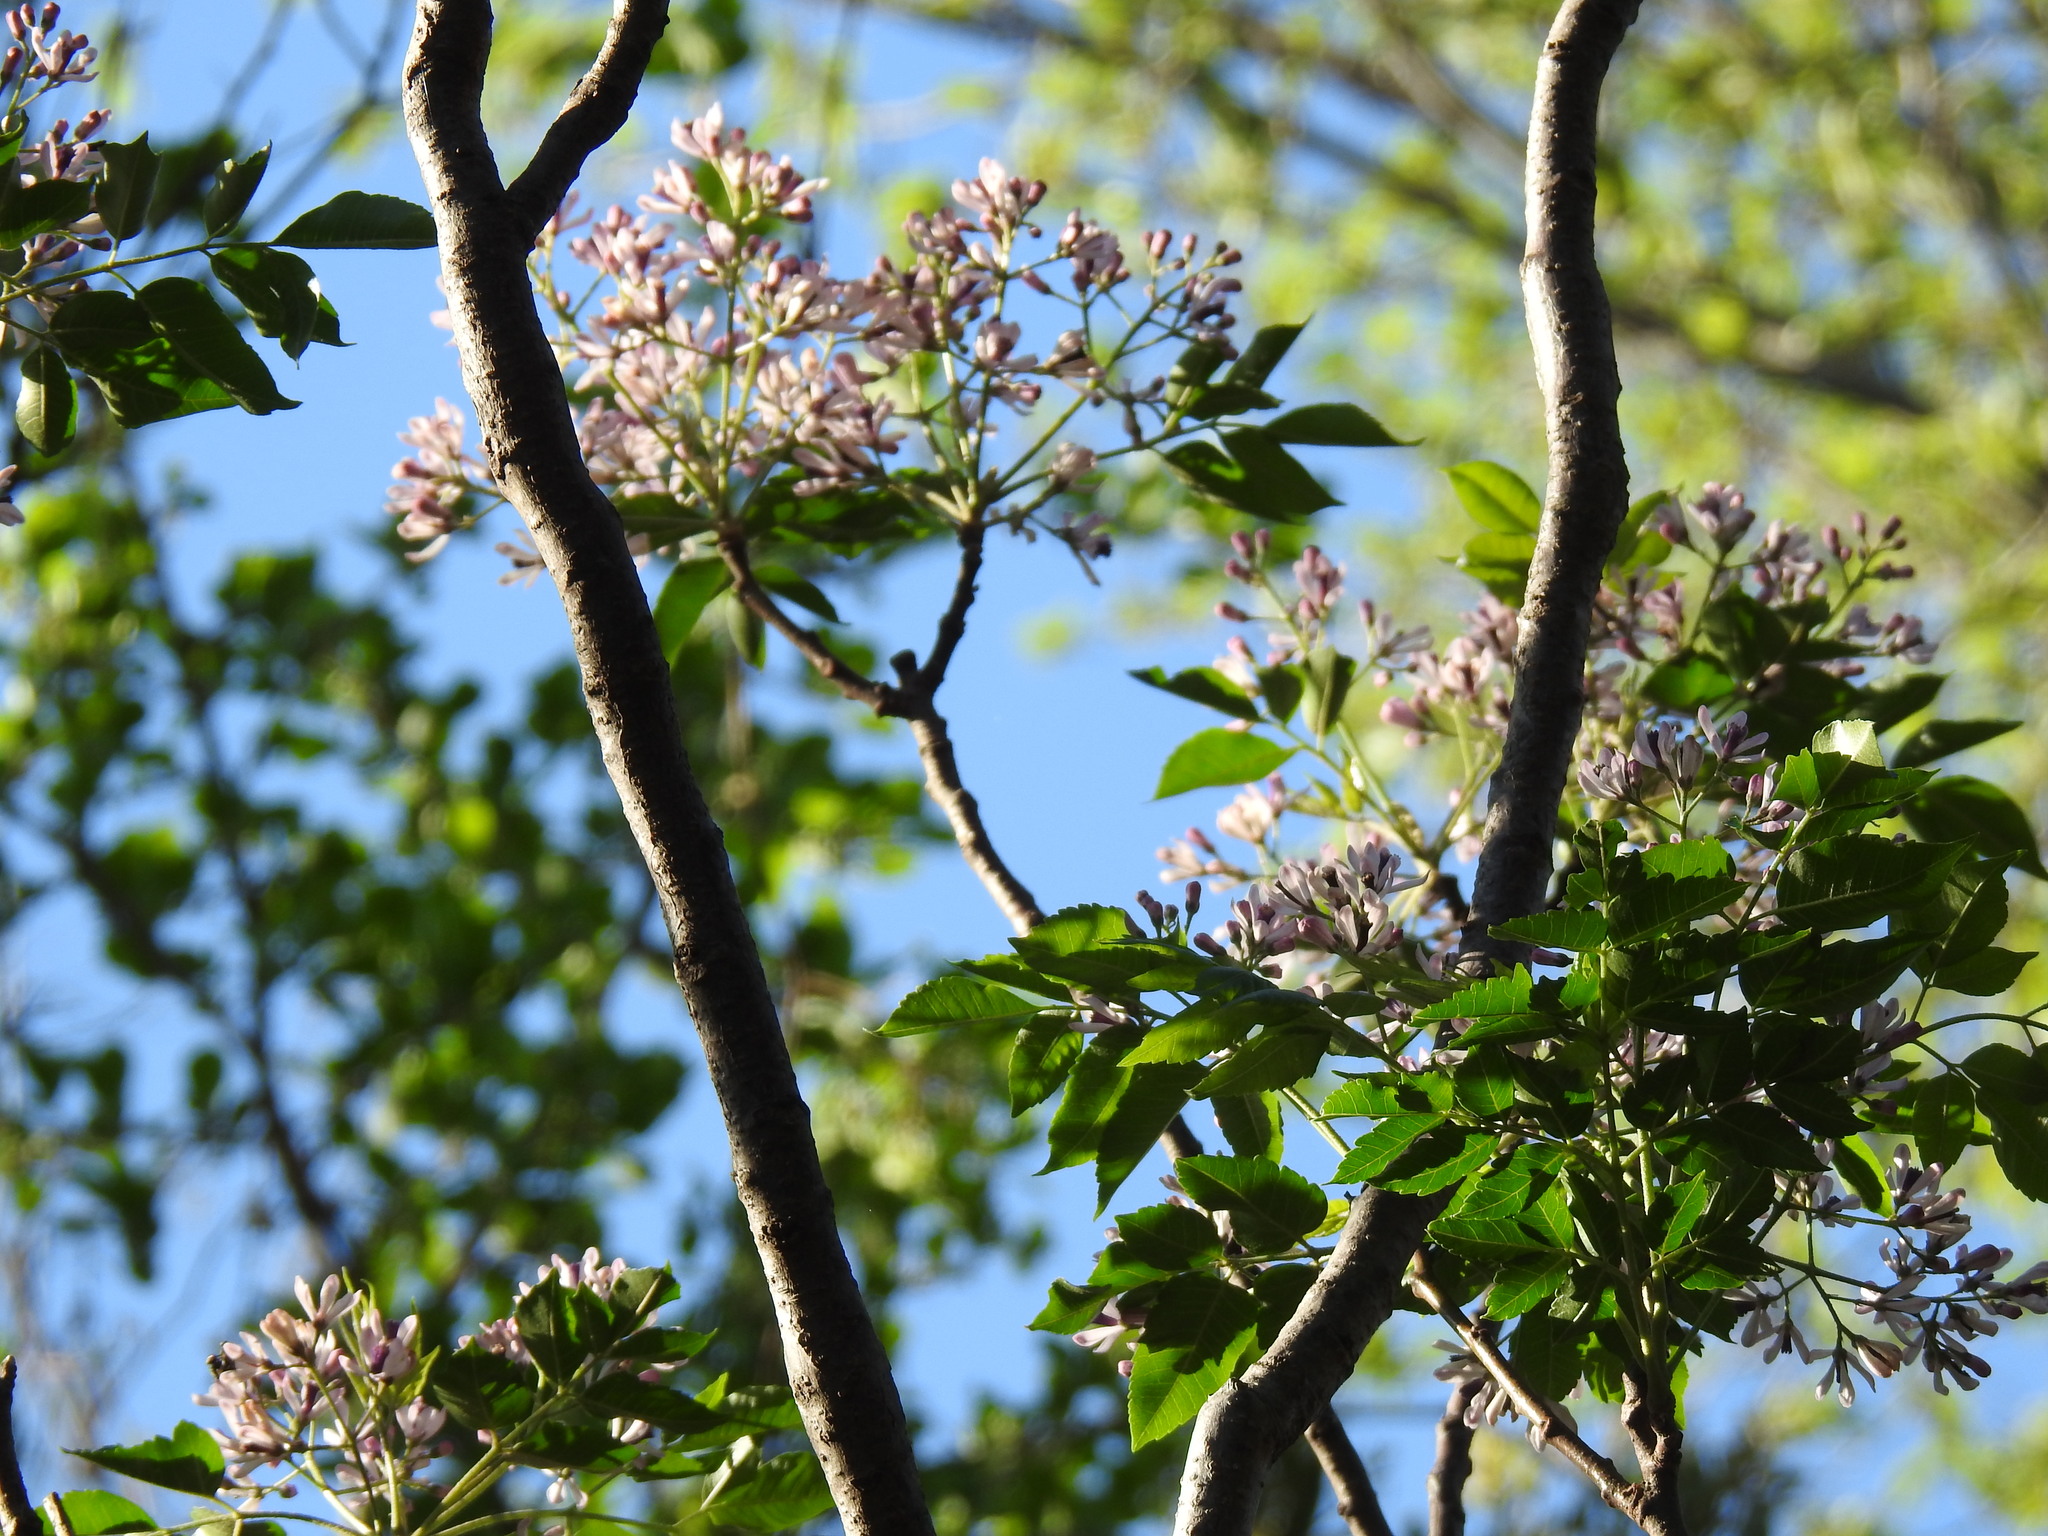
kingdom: Plantae
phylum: Tracheophyta
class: Magnoliopsida
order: Sapindales
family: Meliaceae
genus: Melia
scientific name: Melia azedarach
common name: Chinaberrytree
